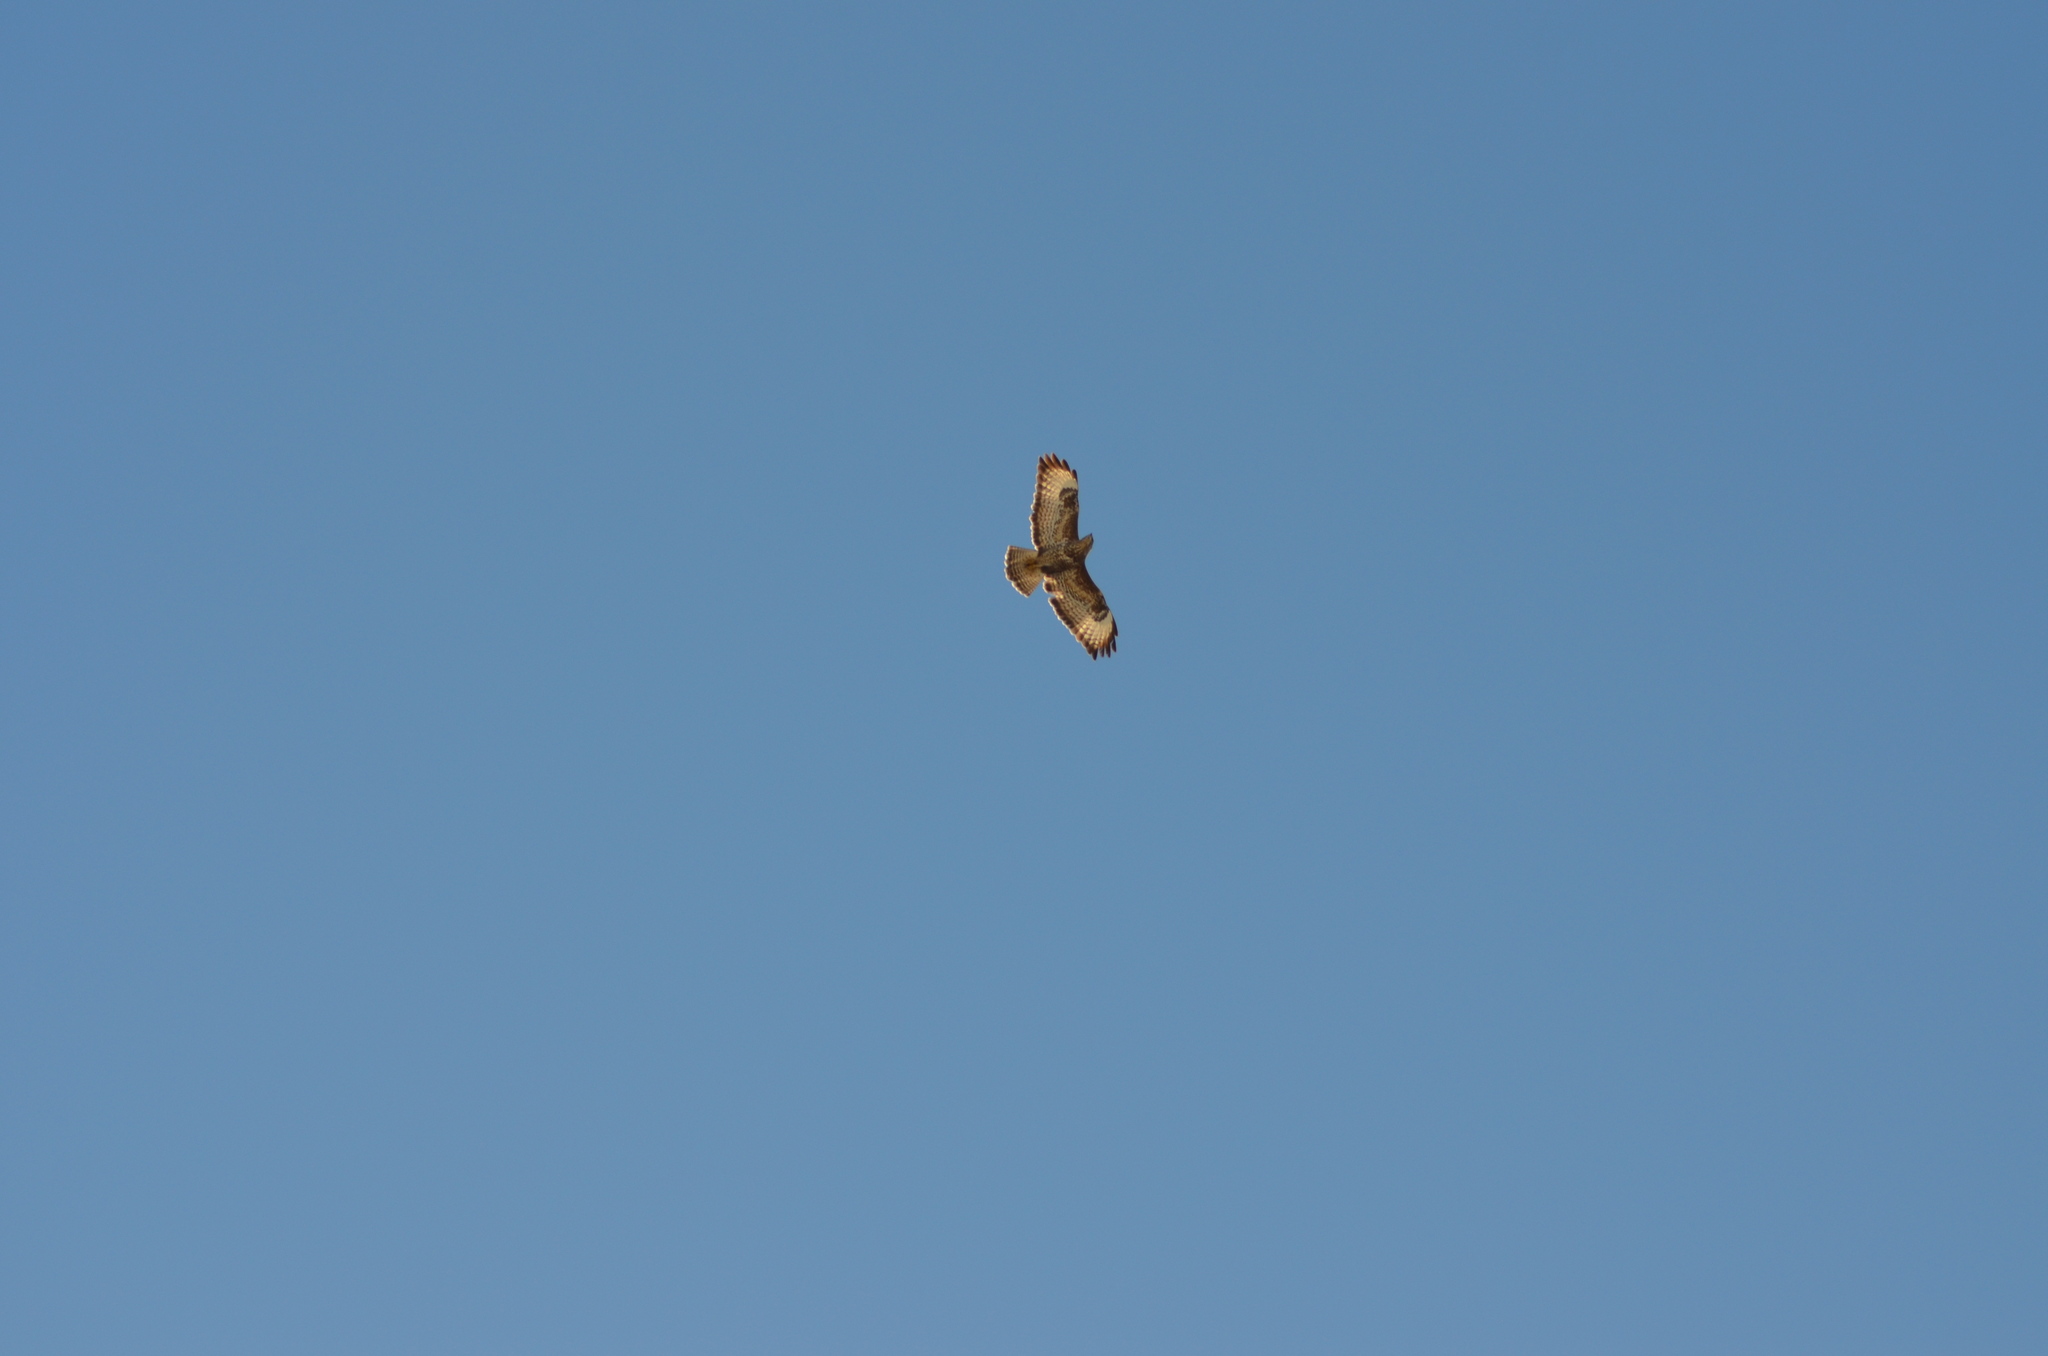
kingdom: Animalia
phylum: Chordata
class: Aves
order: Accipitriformes
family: Accipitridae
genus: Buteo
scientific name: Buteo buteo
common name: Common buzzard
